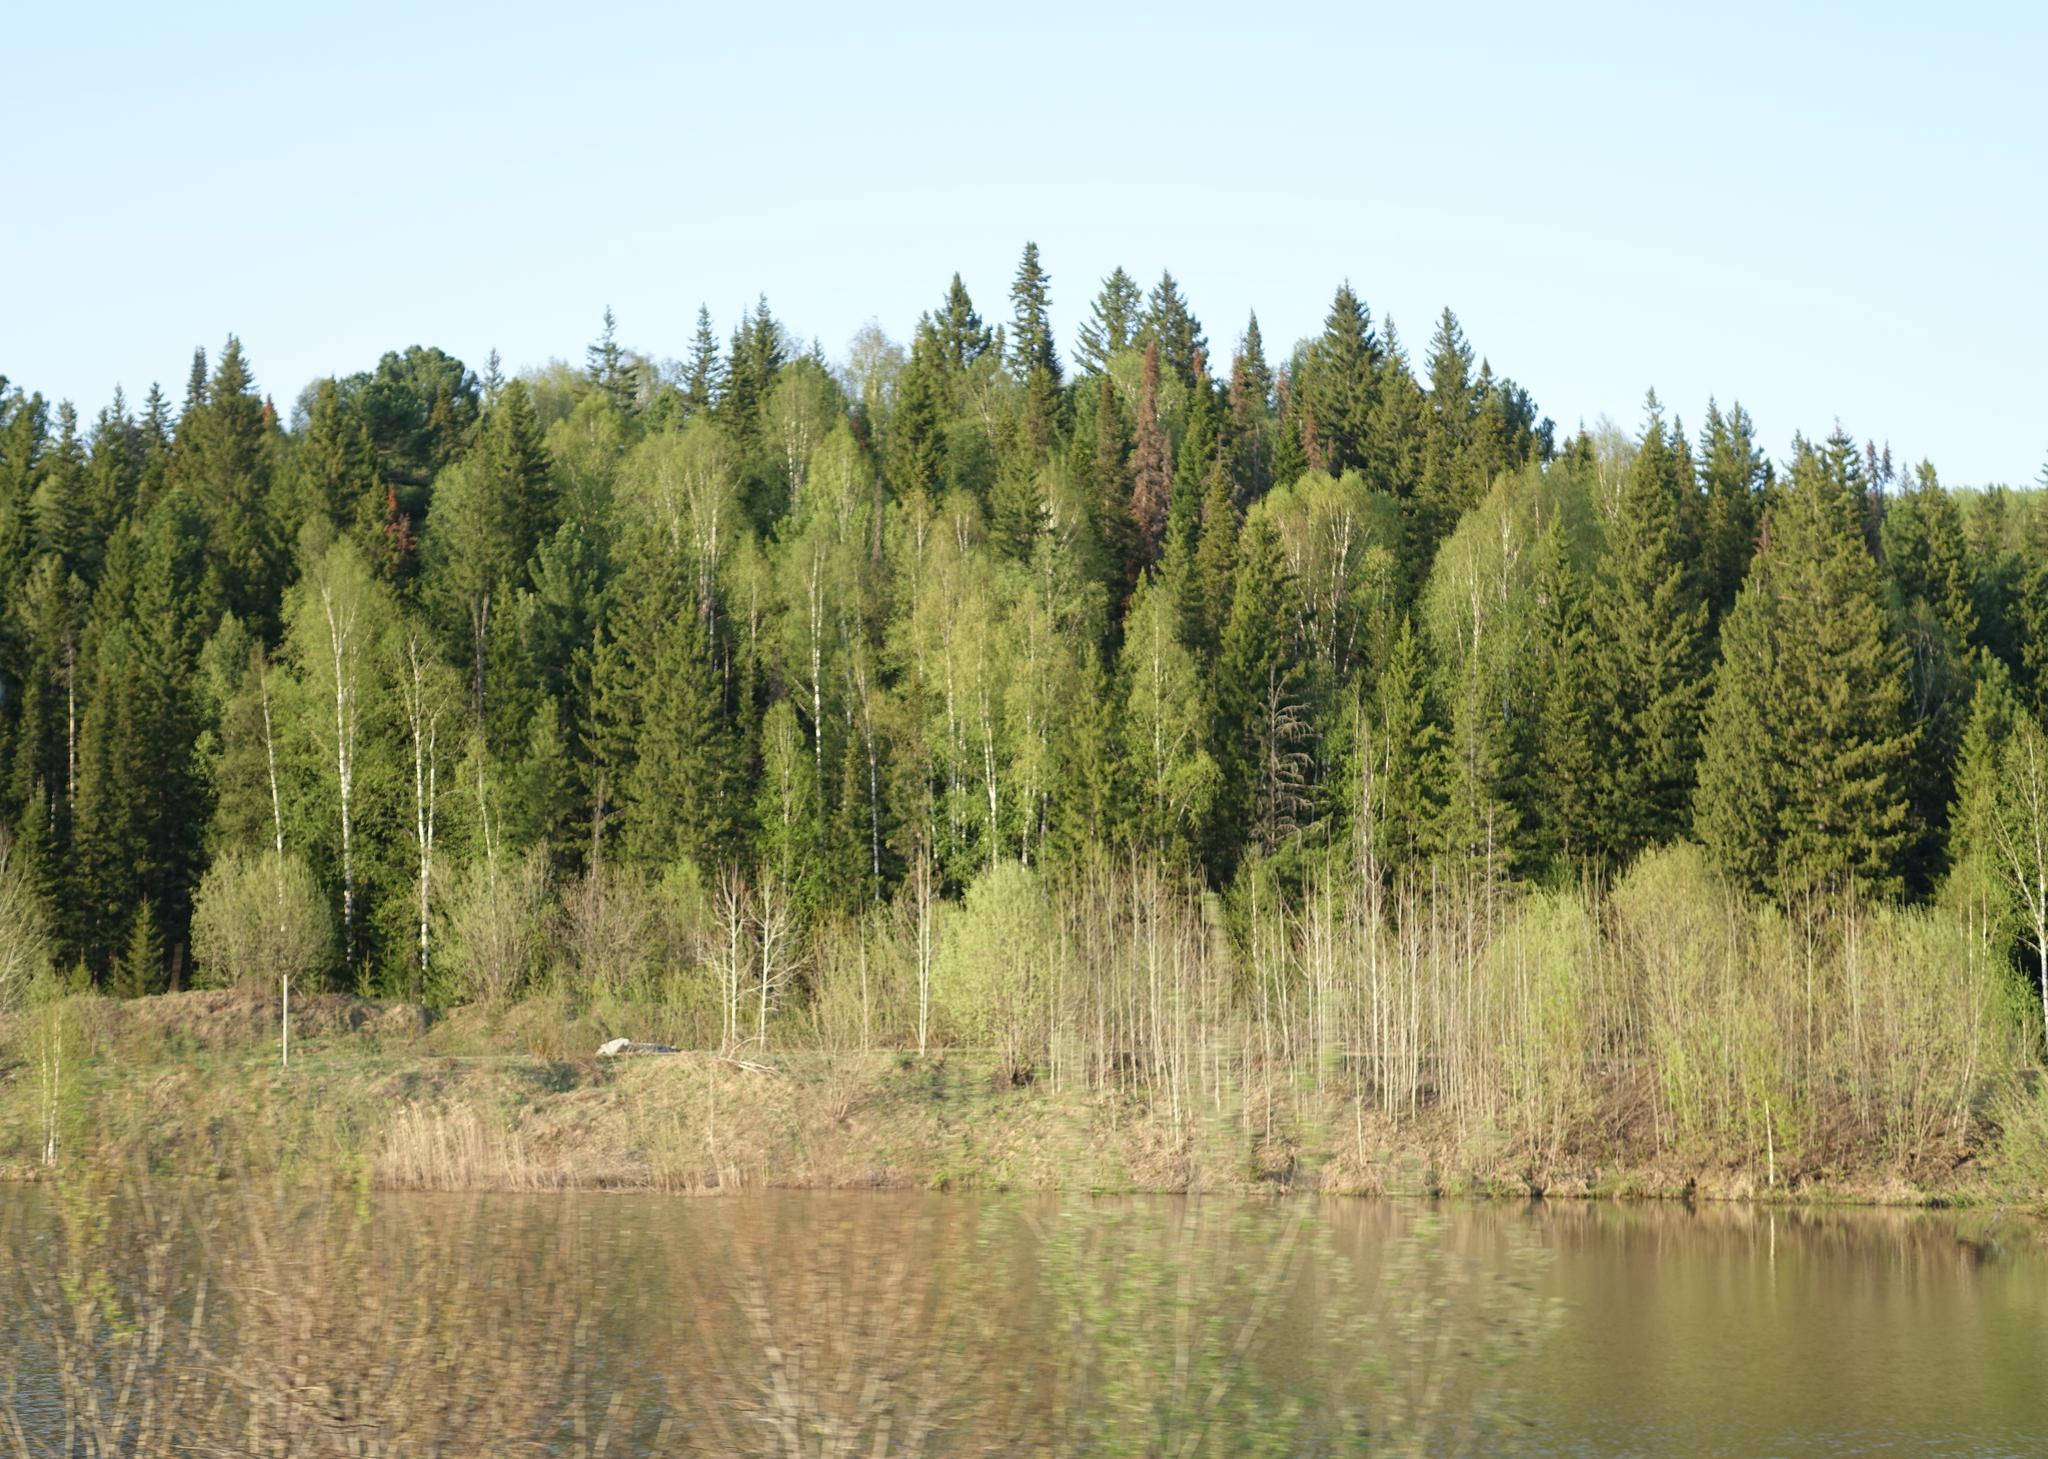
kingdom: Plantae
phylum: Tracheophyta
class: Pinopsida
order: Pinales
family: Pinaceae
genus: Abies
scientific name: Abies sibirica
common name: Siberian fir
